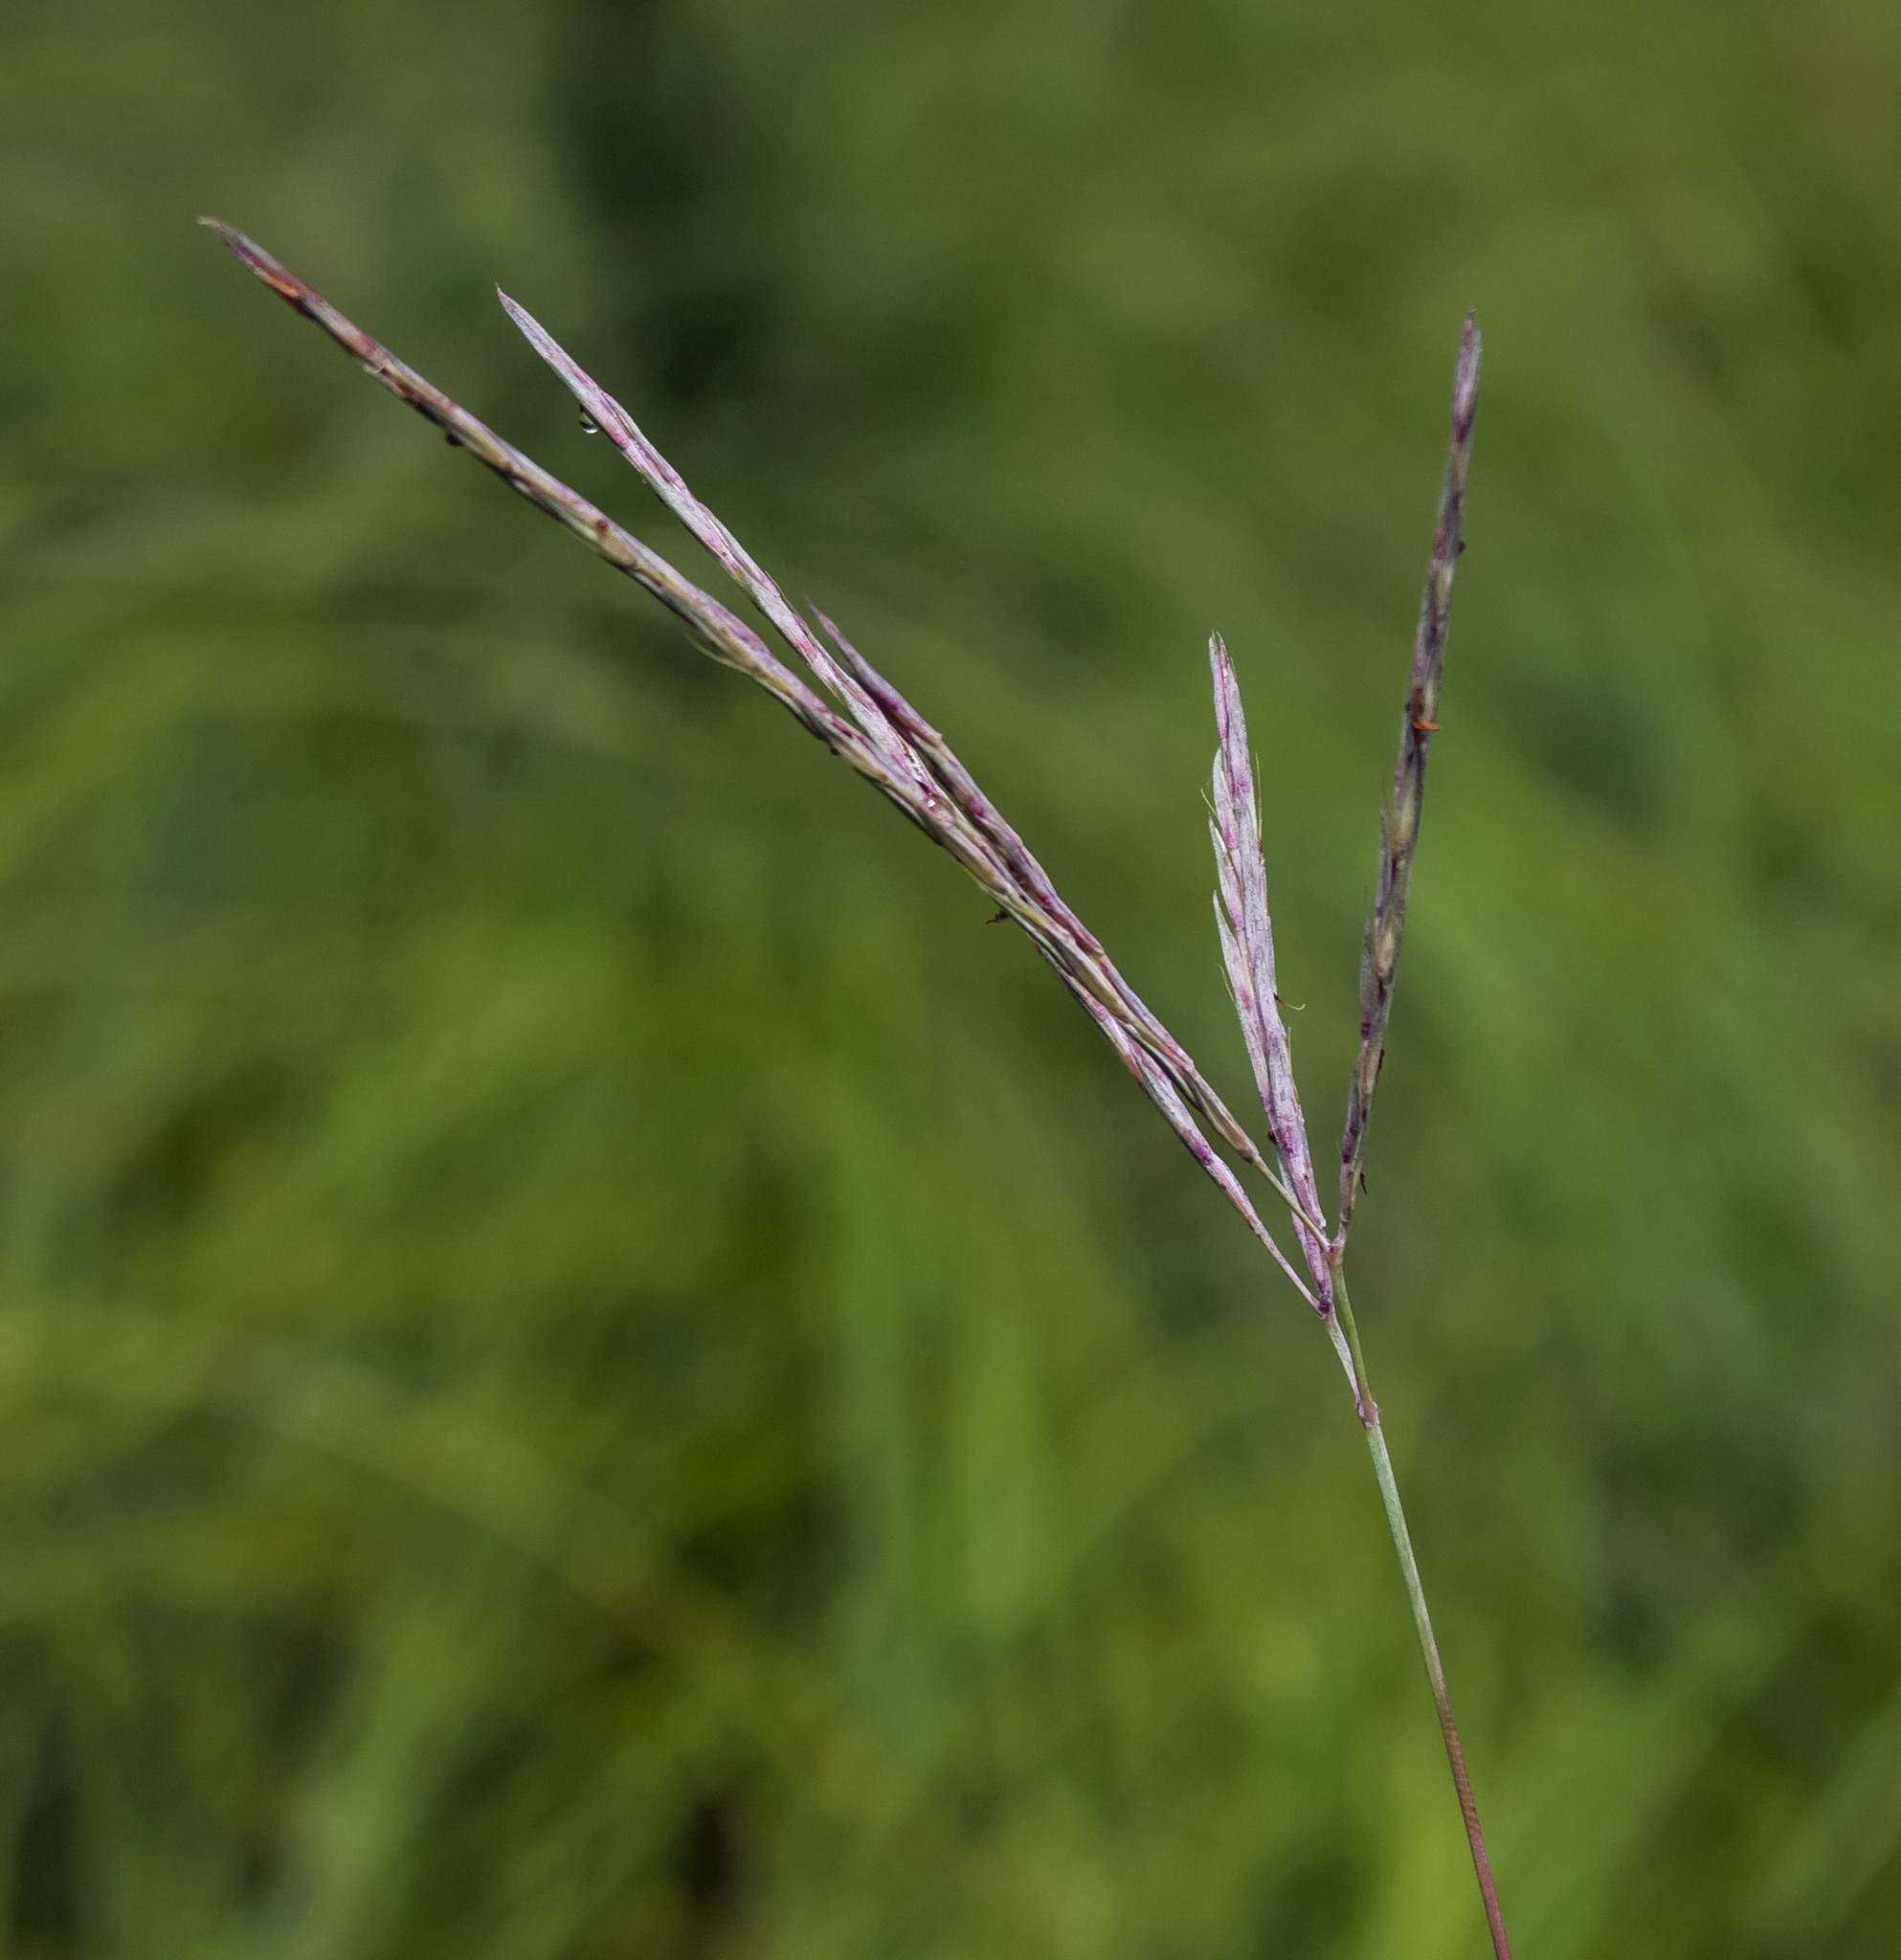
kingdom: Plantae
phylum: Tracheophyta
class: Liliopsida
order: Poales
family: Poaceae
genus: Andropogon
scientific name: Andropogon gerardi
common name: Big bluestem
